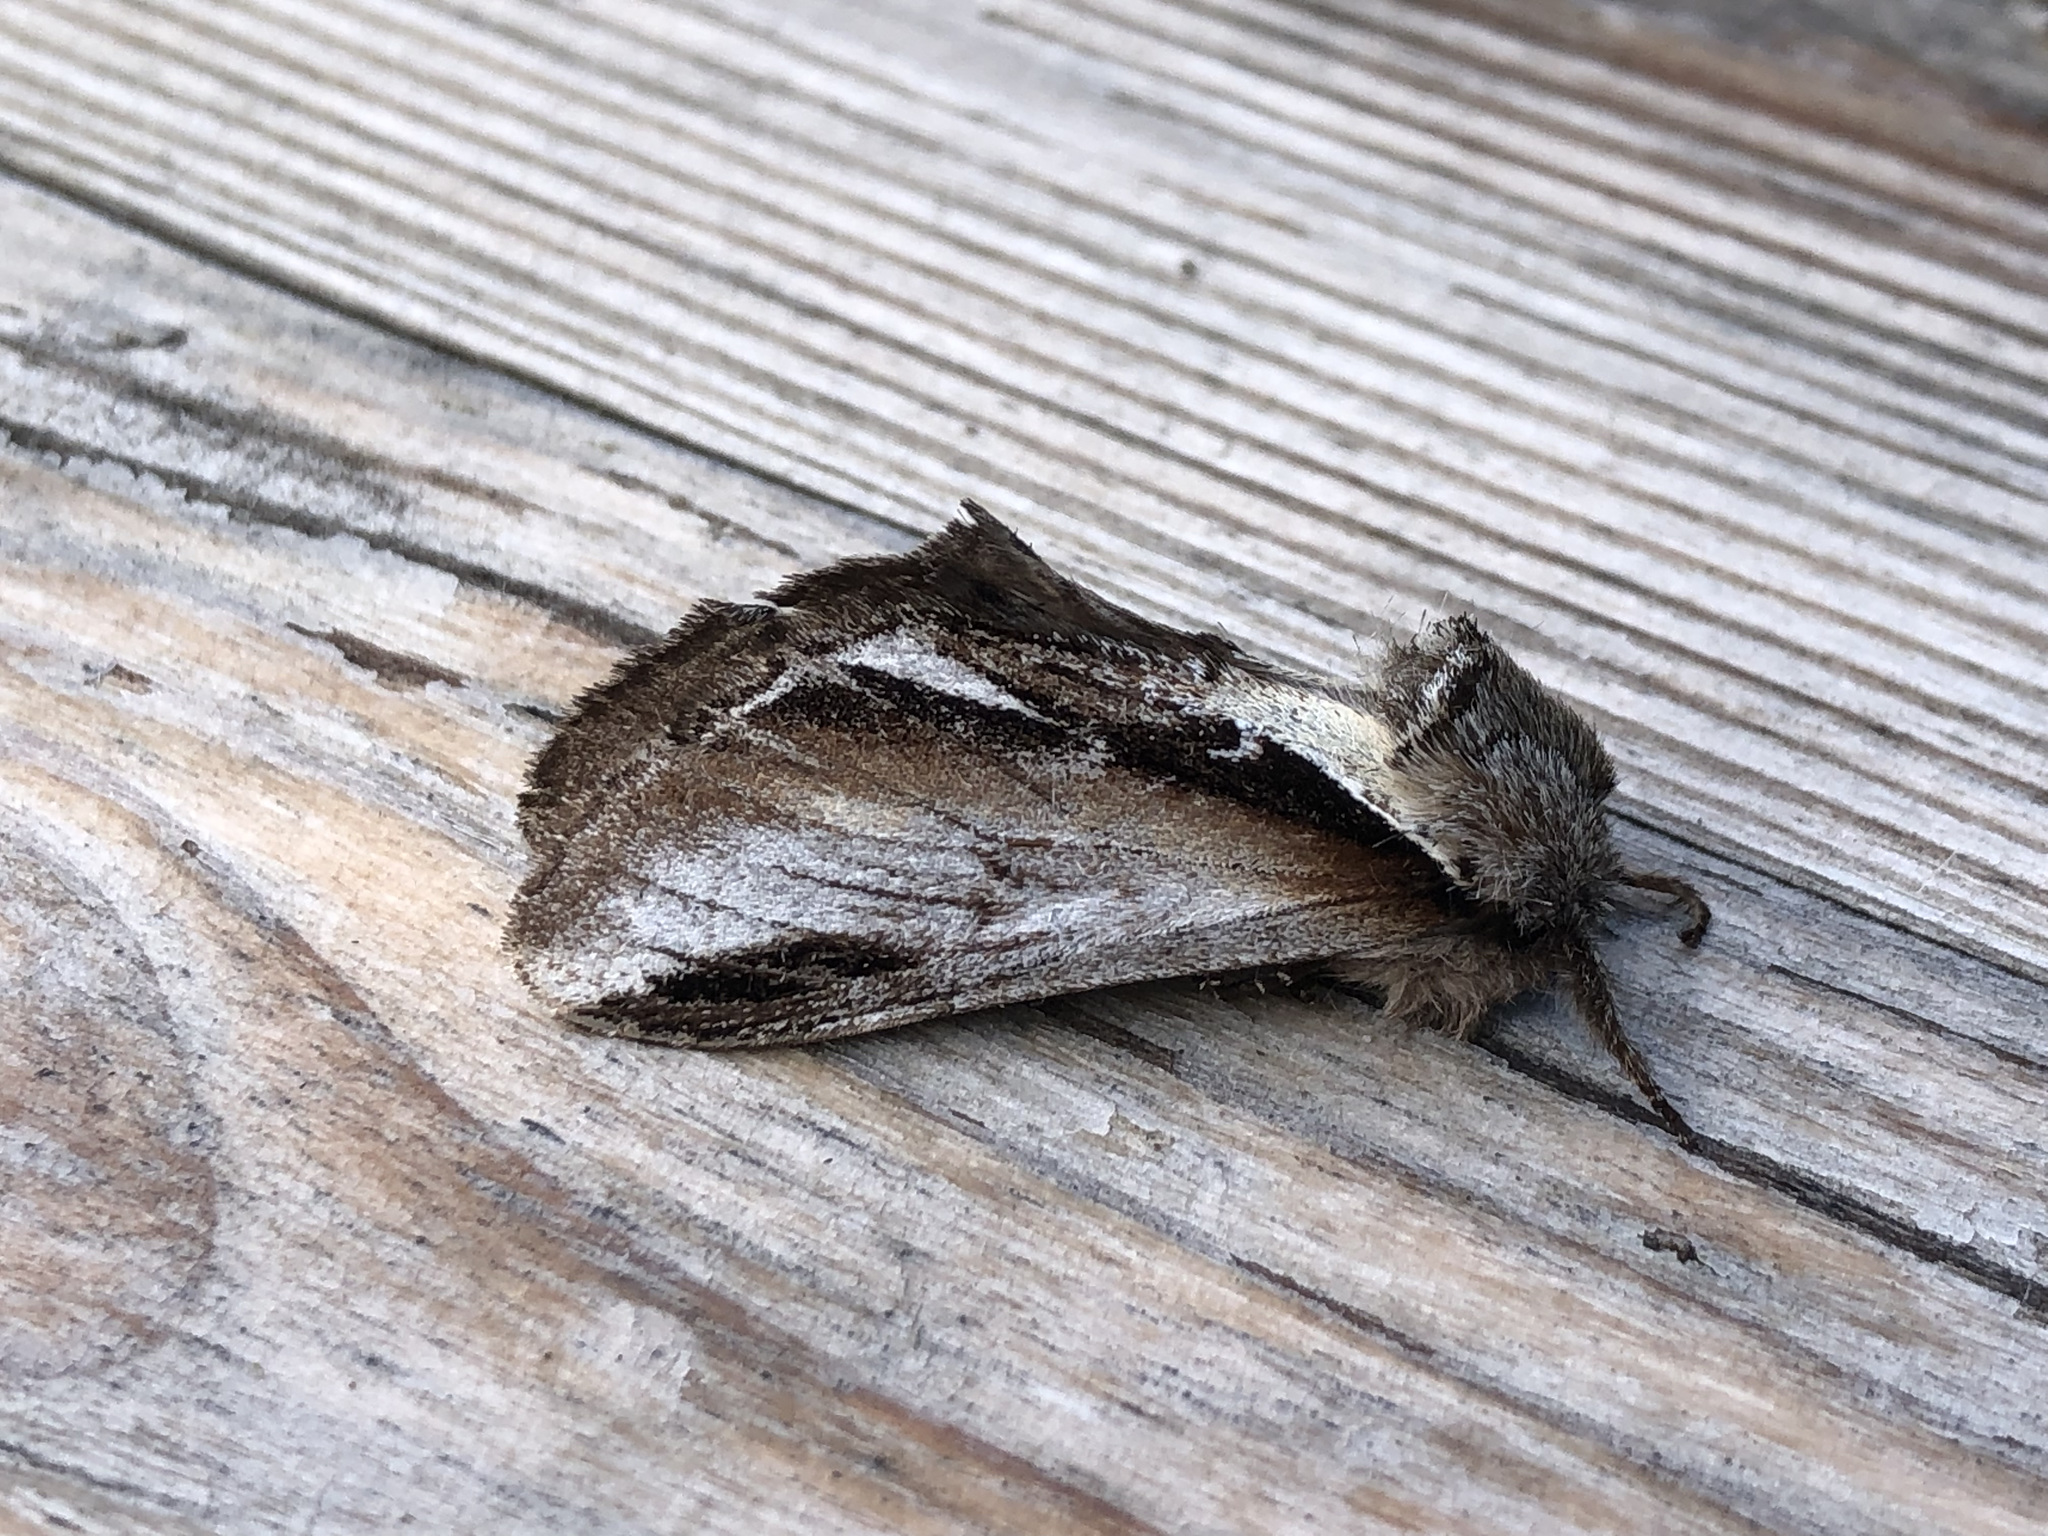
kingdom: Animalia
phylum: Arthropoda
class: Insecta
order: Lepidoptera
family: Notodontidae
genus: Pheosia
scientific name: Pheosia gnoma
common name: Lesser swallow prominent
